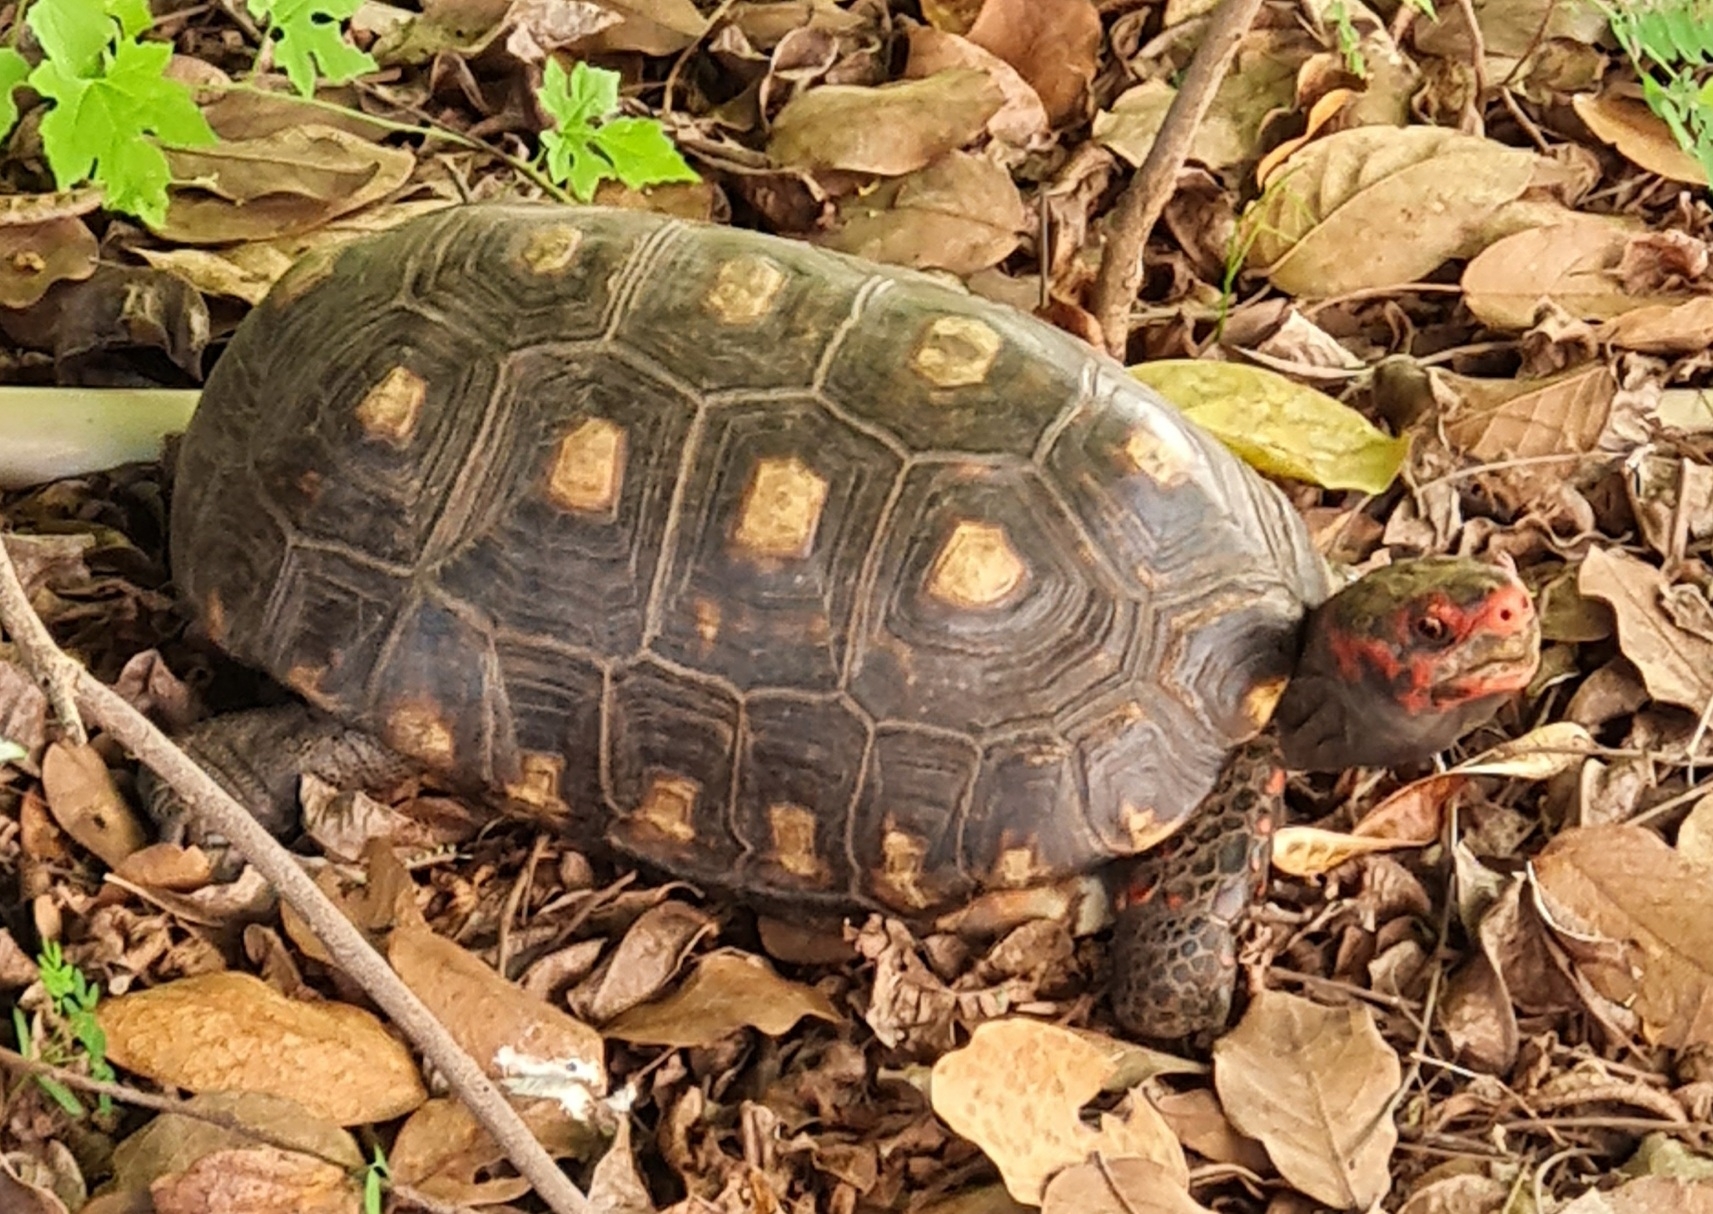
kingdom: Animalia
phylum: Chordata
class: Testudines
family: Testudinidae
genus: Chelonoidis
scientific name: Chelonoidis carbonarius
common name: Red-footed tortoise
